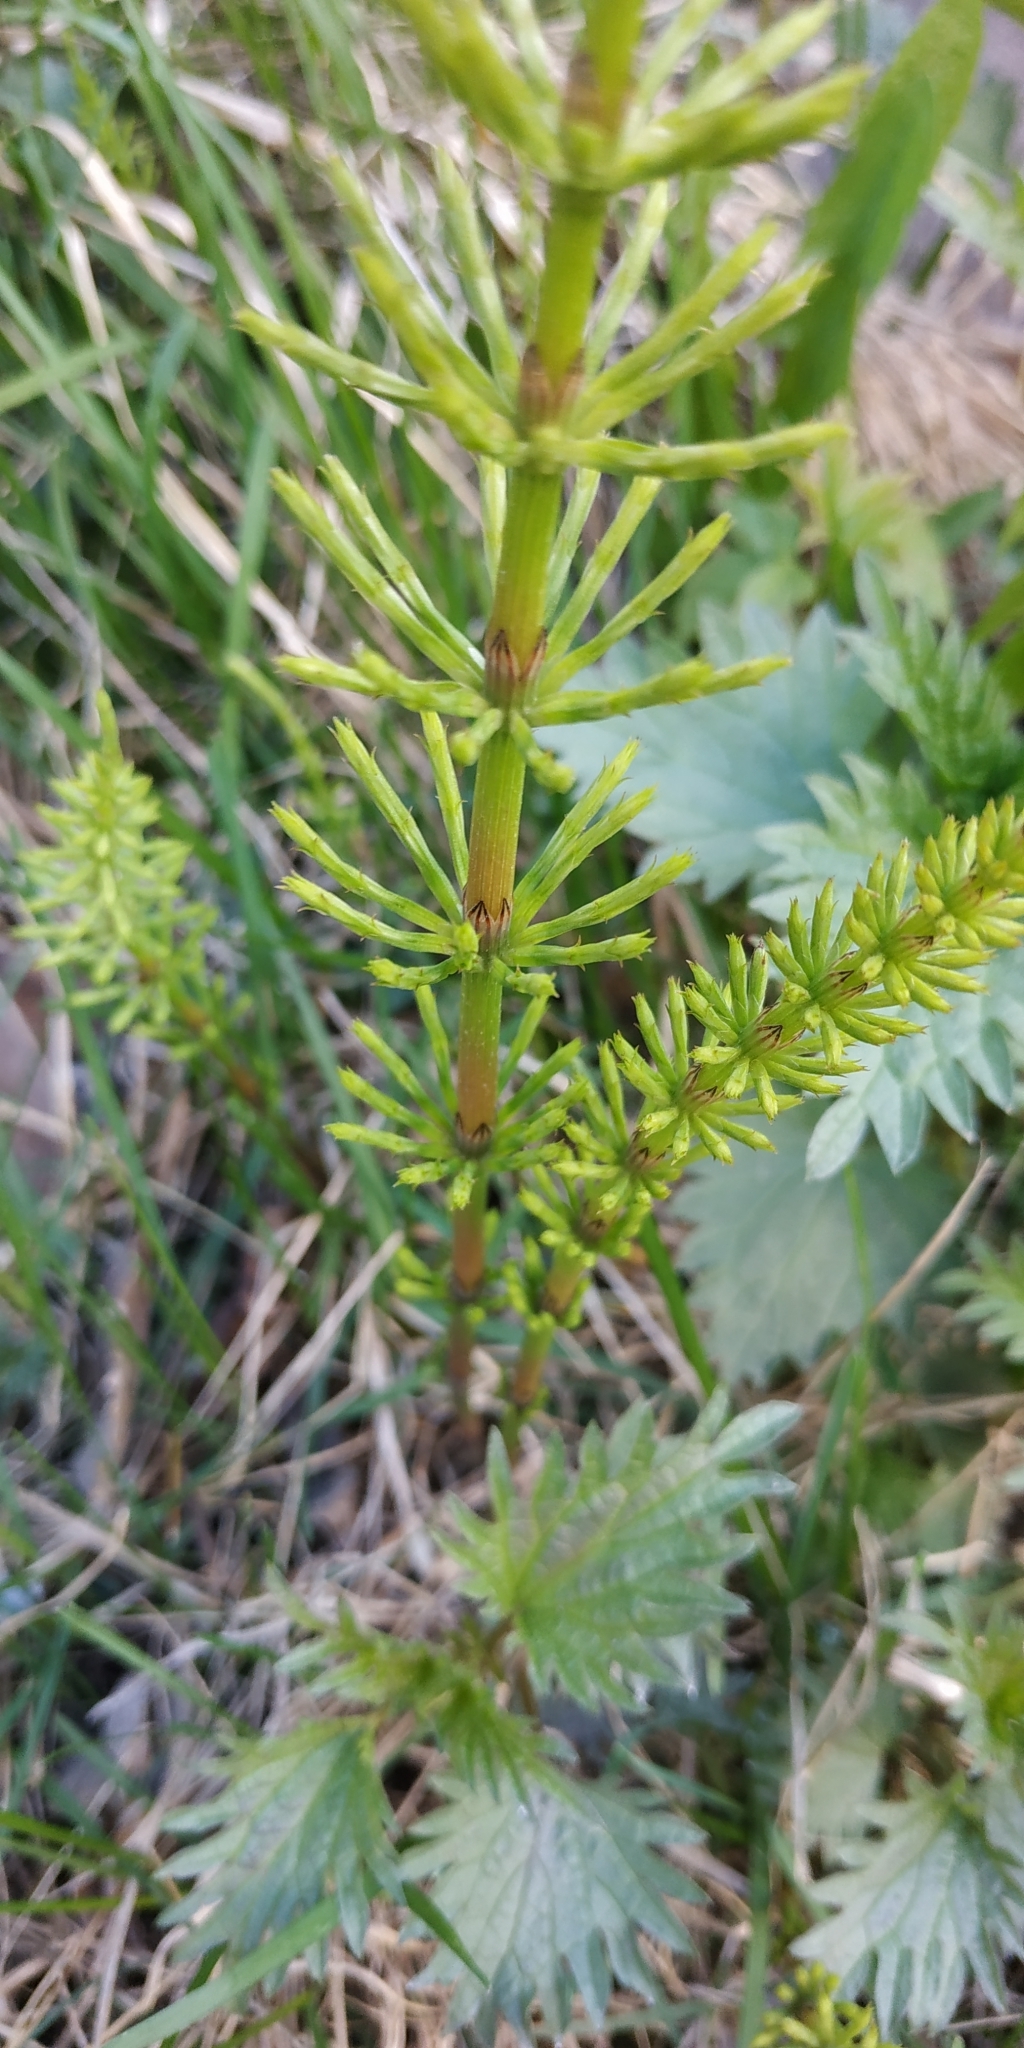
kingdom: Plantae
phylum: Tracheophyta
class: Polypodiopsida
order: Equisetales
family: Equisetaceae
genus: Equisetum
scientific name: Equisetum arvense
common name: Field horsetail
